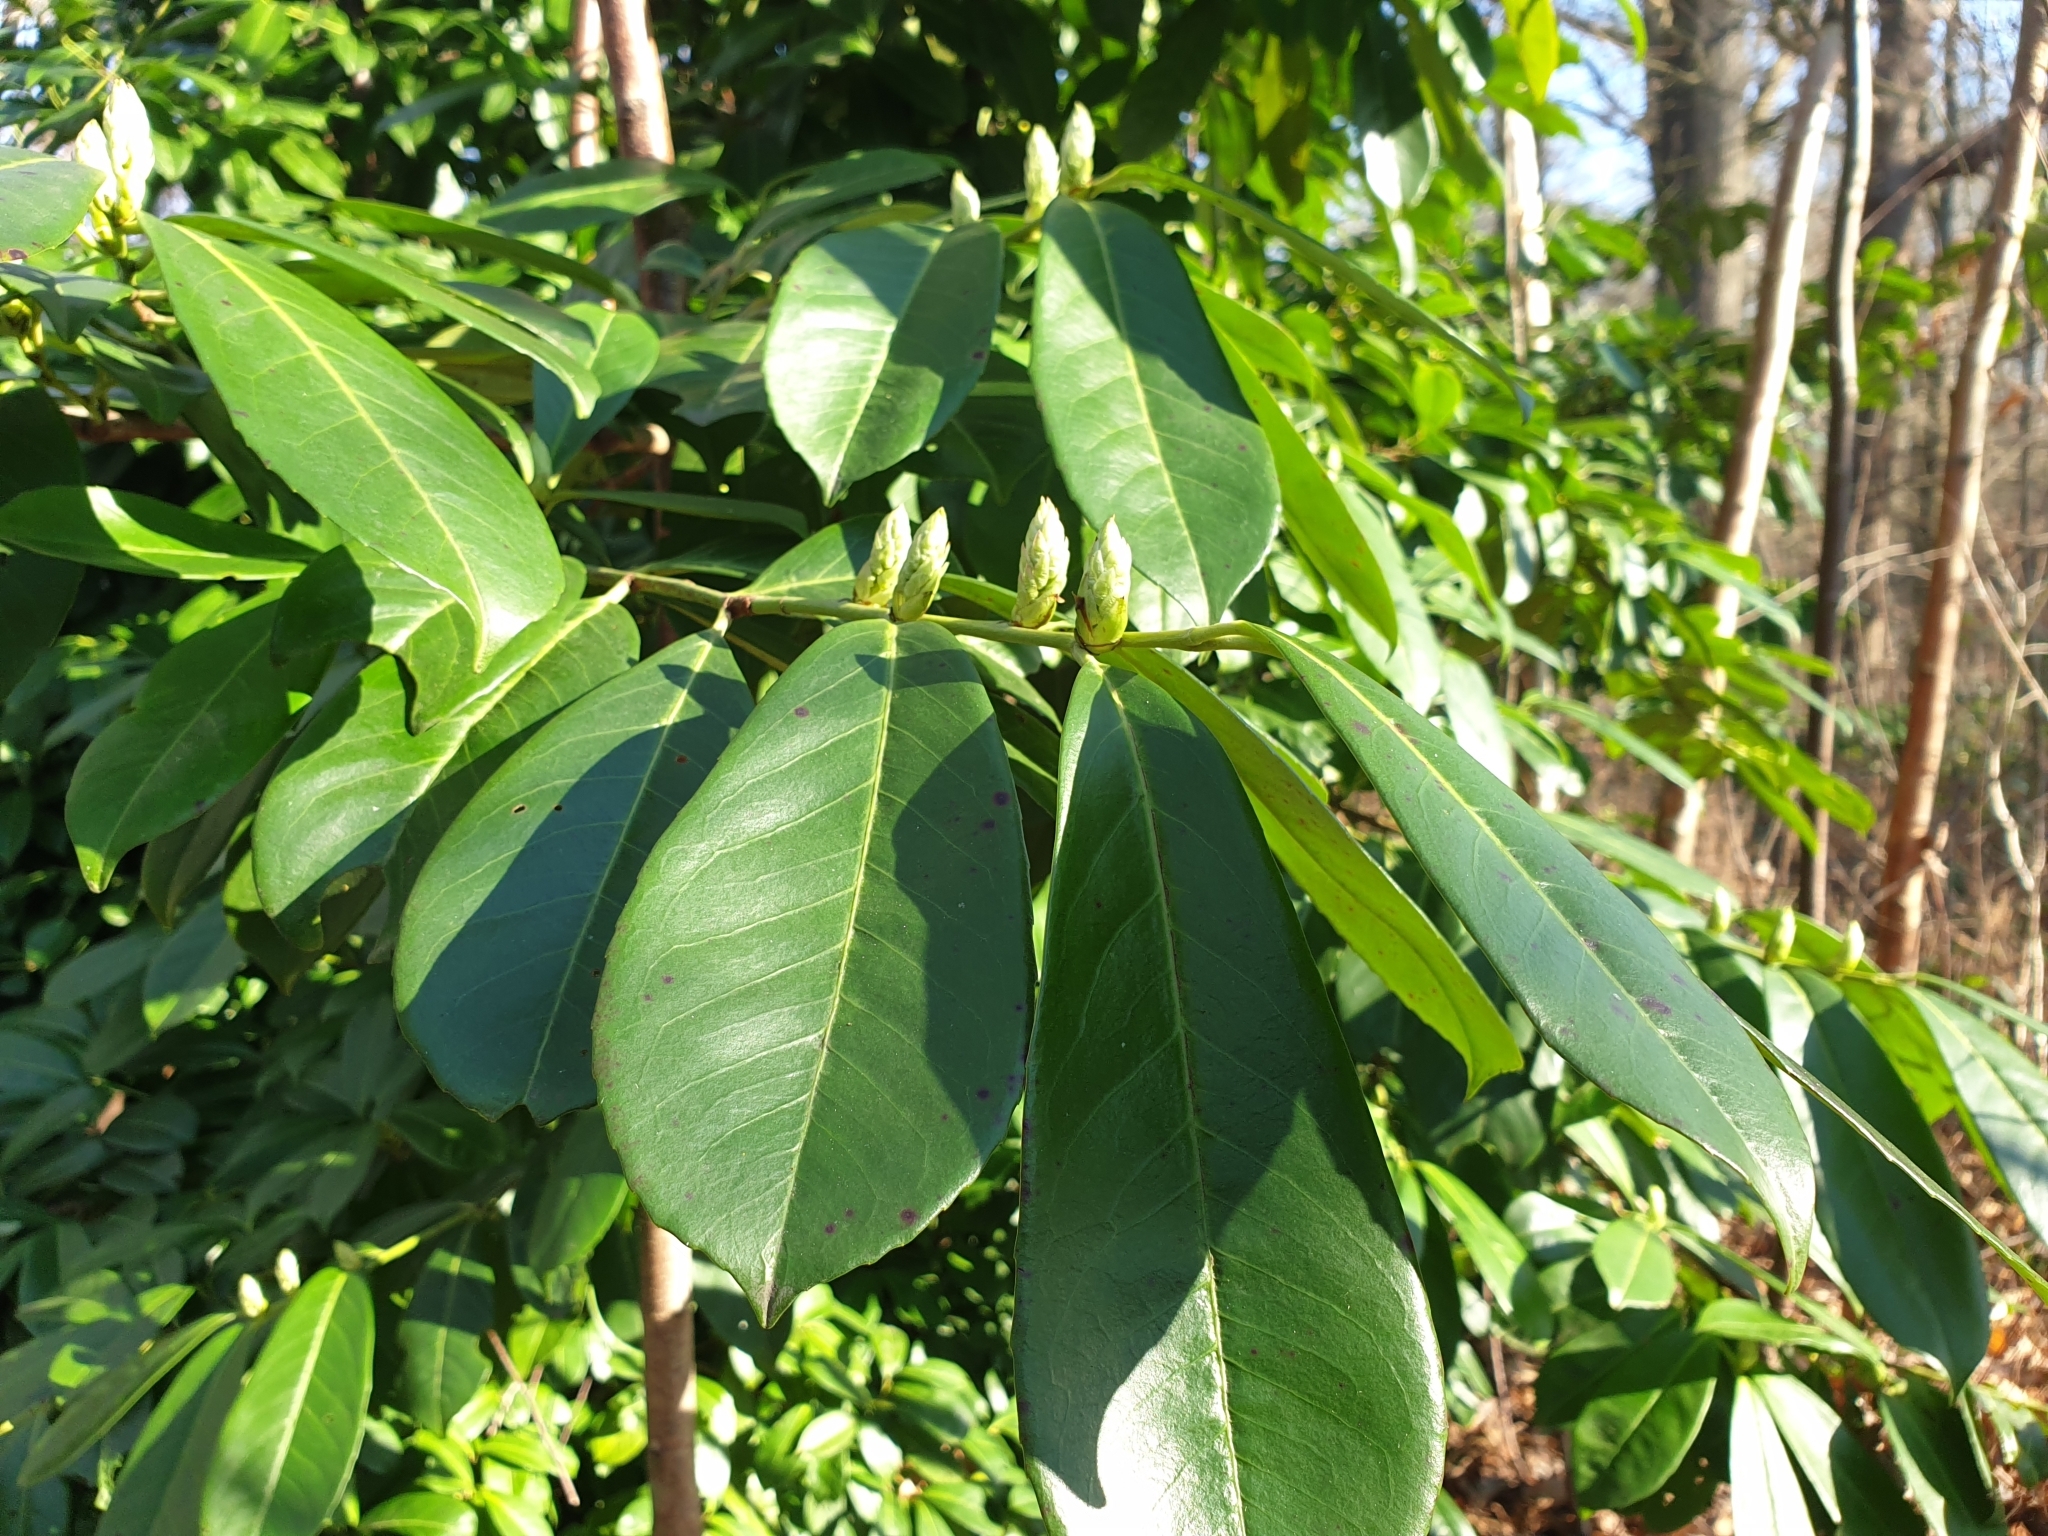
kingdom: Plantae
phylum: Tracheophyta
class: Magnoliopsida
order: Rosales
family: Rosaceae
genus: Prunus
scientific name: Prunus laurocerasus
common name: Cherry laurel
